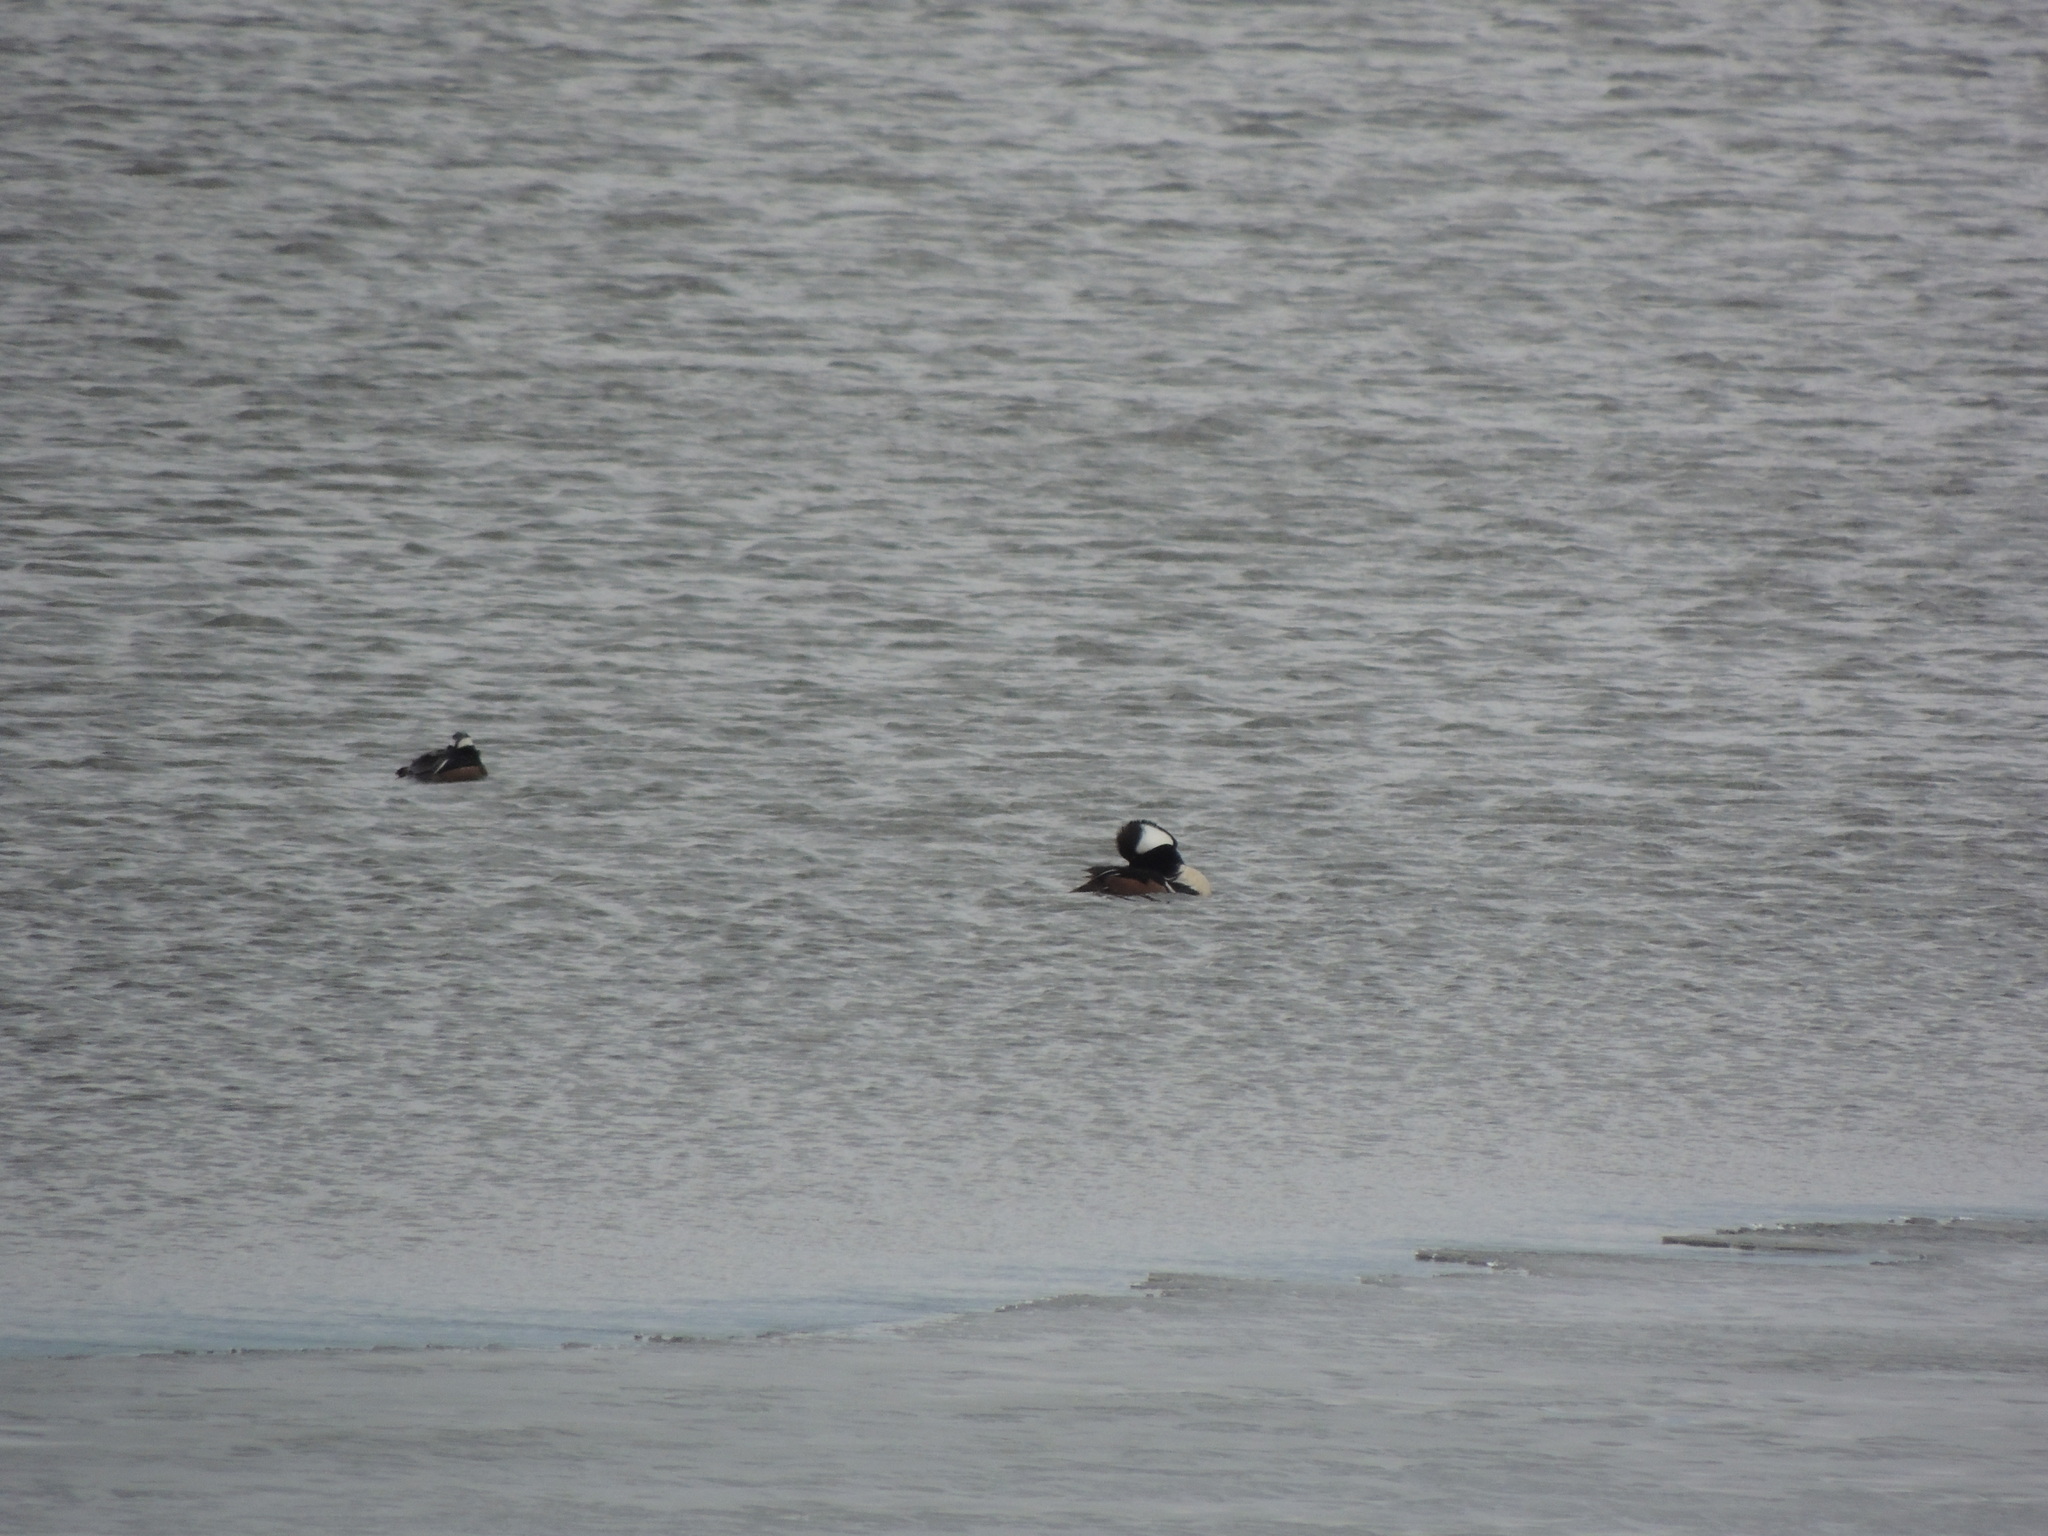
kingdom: Animalia
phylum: Chordata
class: Aves
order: Anseriformes
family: Anatidae
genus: Lophodytes
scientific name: Lophodytes cucullatus
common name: Hooded merganser
